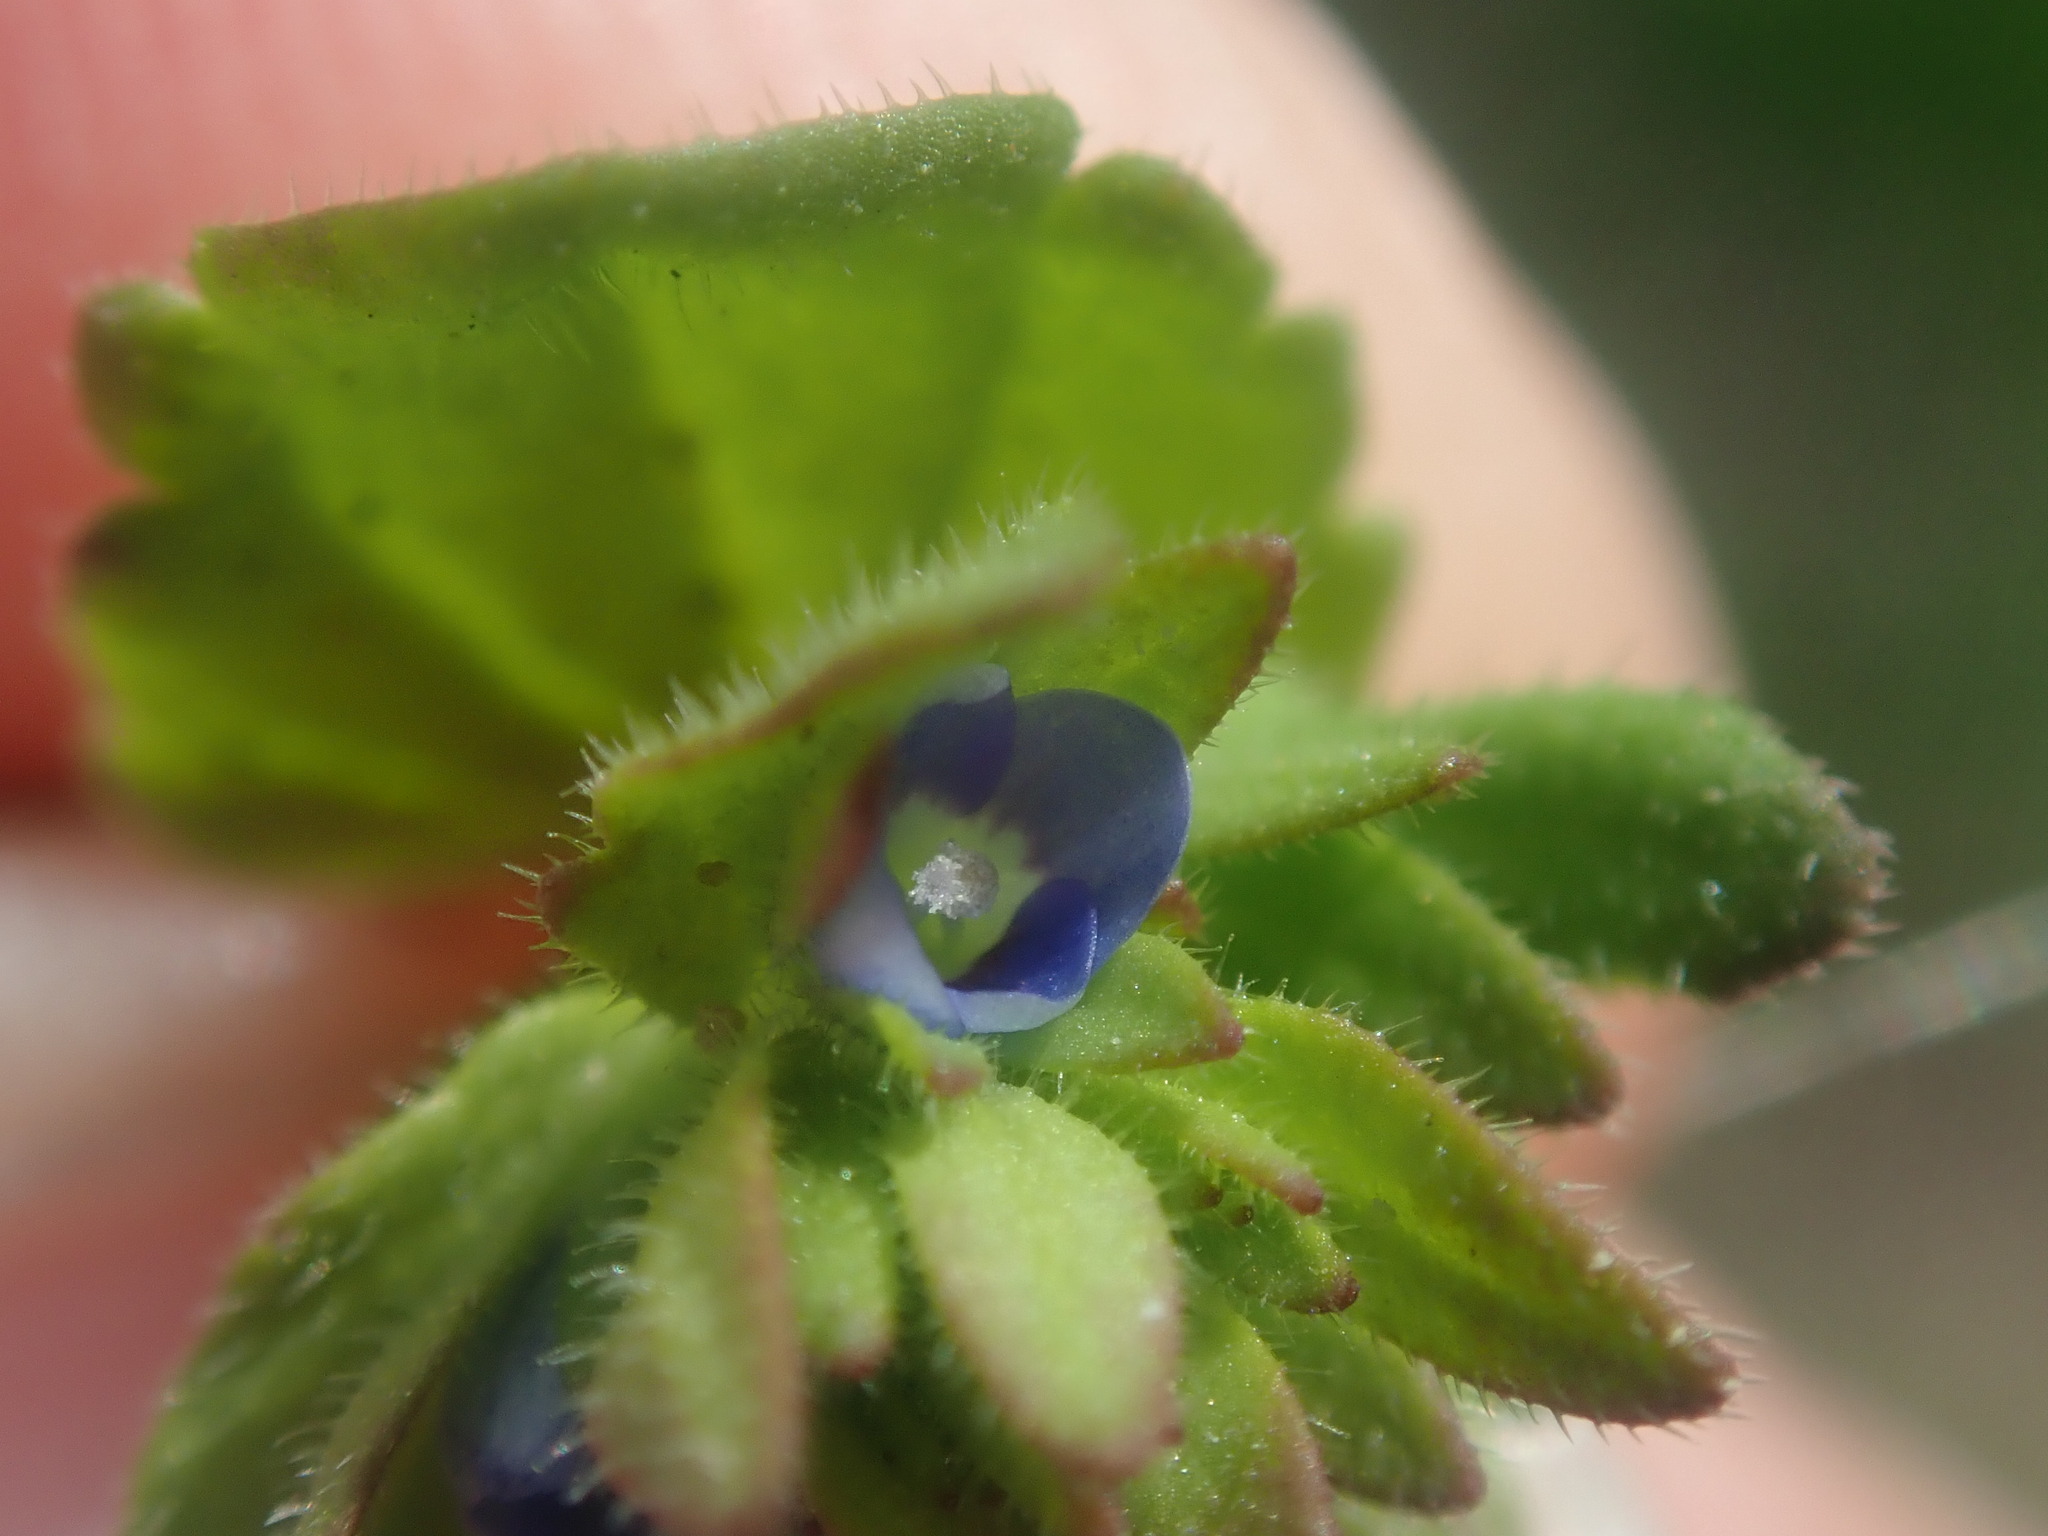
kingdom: Plantae
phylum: Tracheophyta
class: Magnoliopsida
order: Lamiales
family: Plantaginaceae
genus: Veronica
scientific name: Veronica arvensis
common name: Corn speedwell
